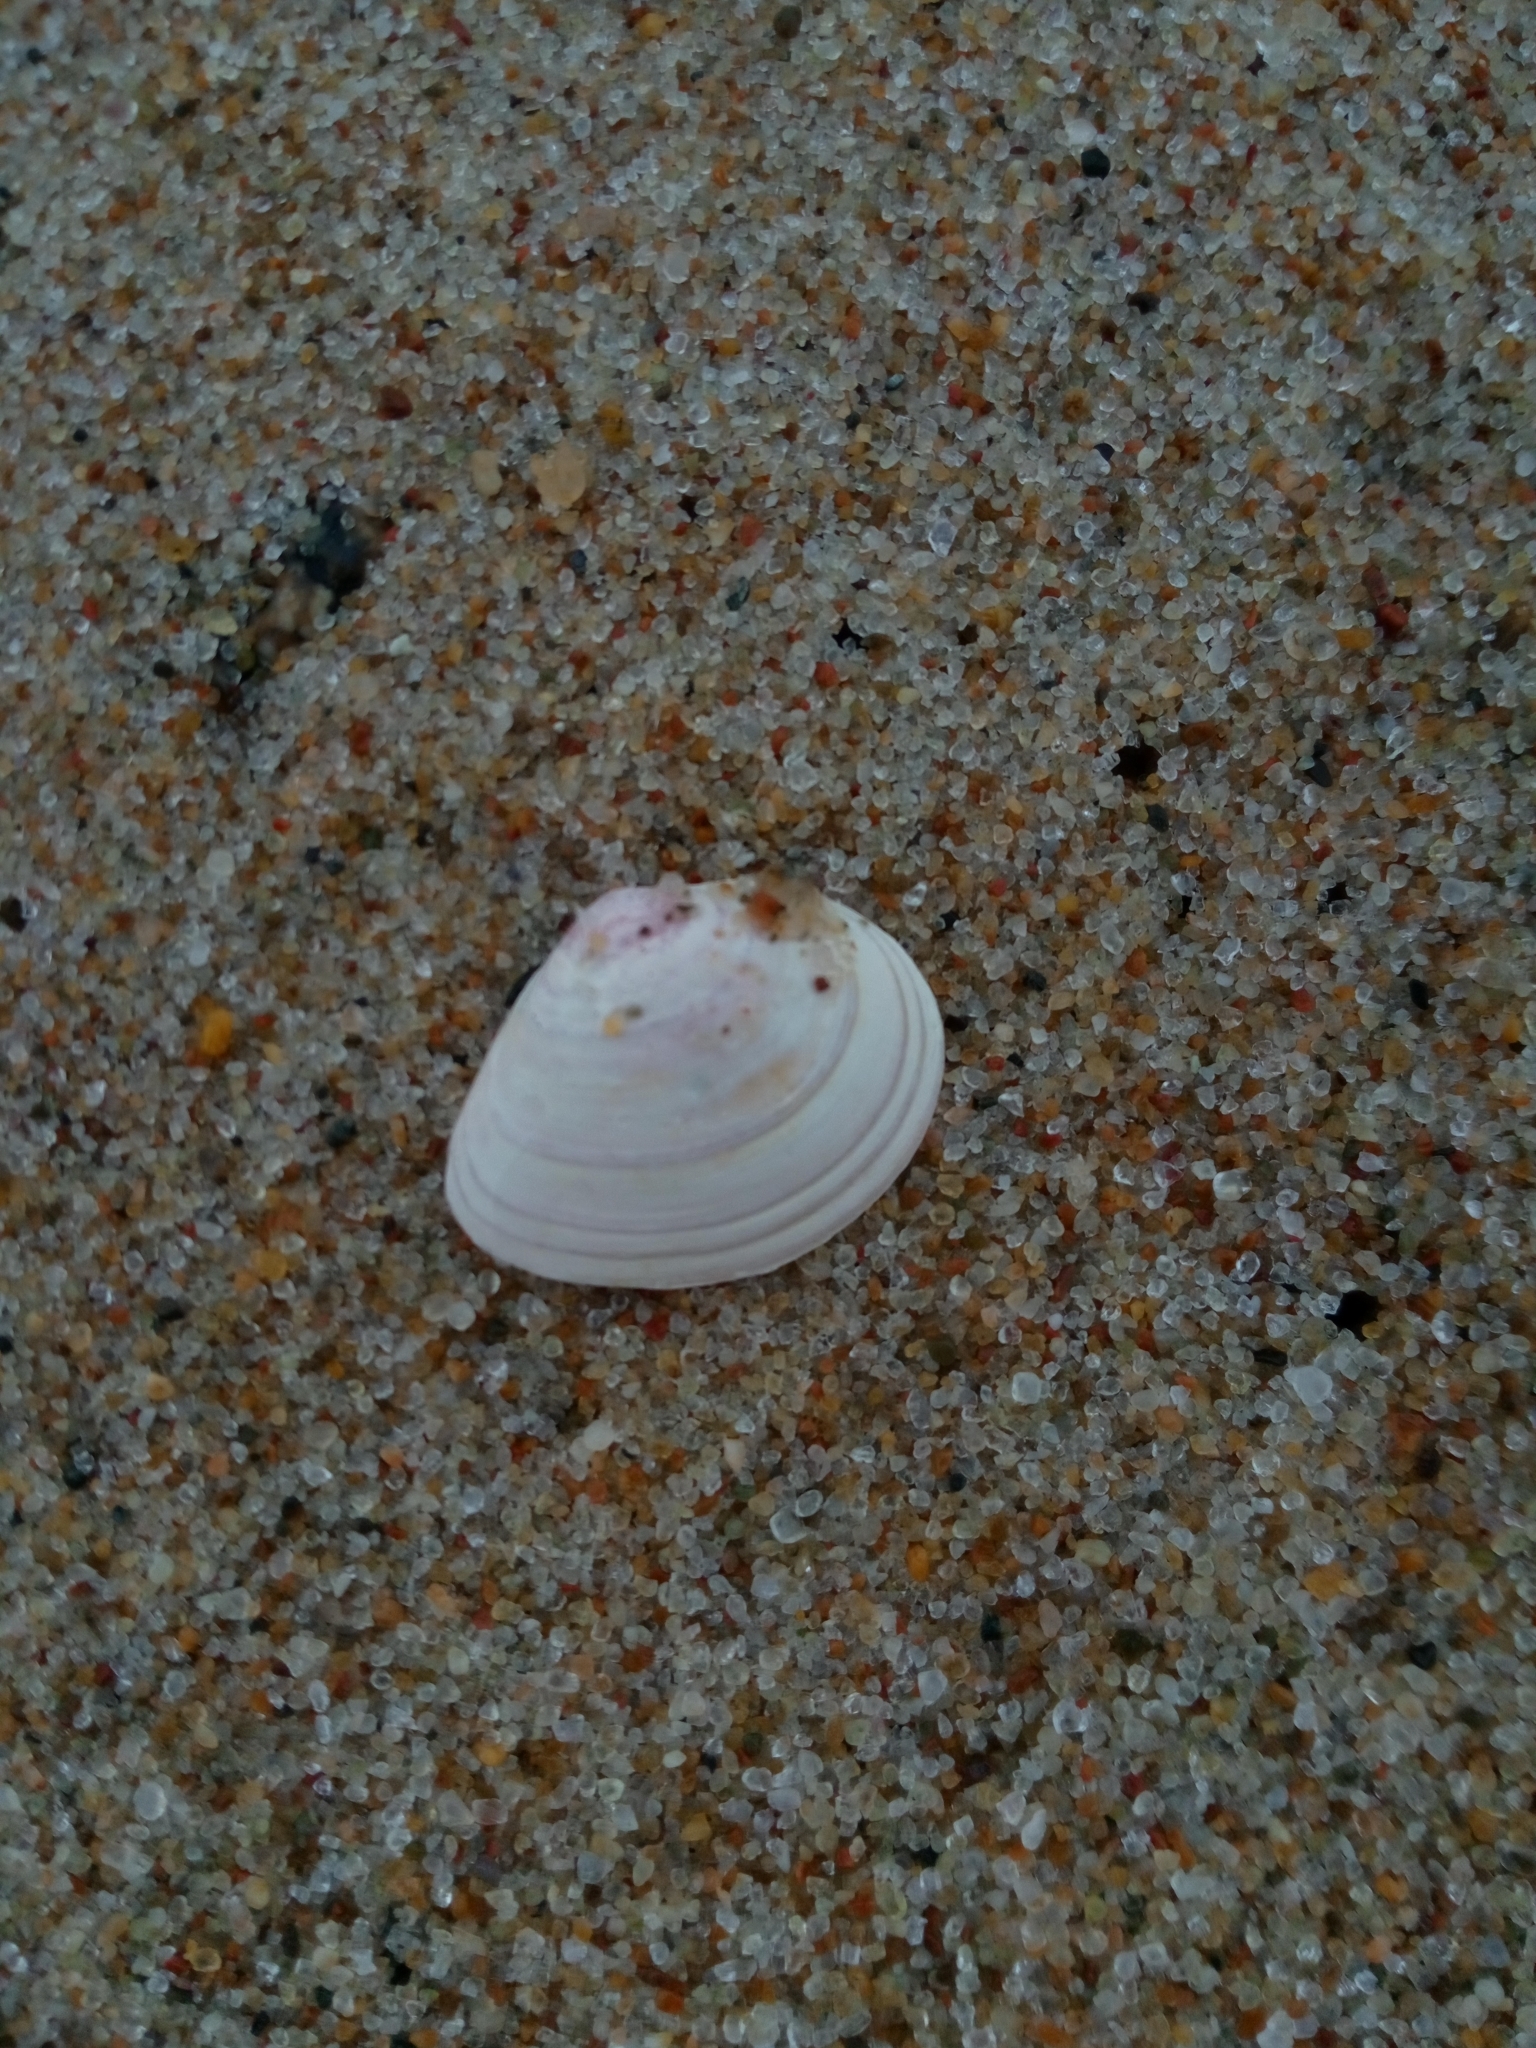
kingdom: Animalia
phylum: Mollusca
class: Bivalvia
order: Cardiida
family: Tellinidae
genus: Macoma
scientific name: Macoma balthica
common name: Baltic tellin
